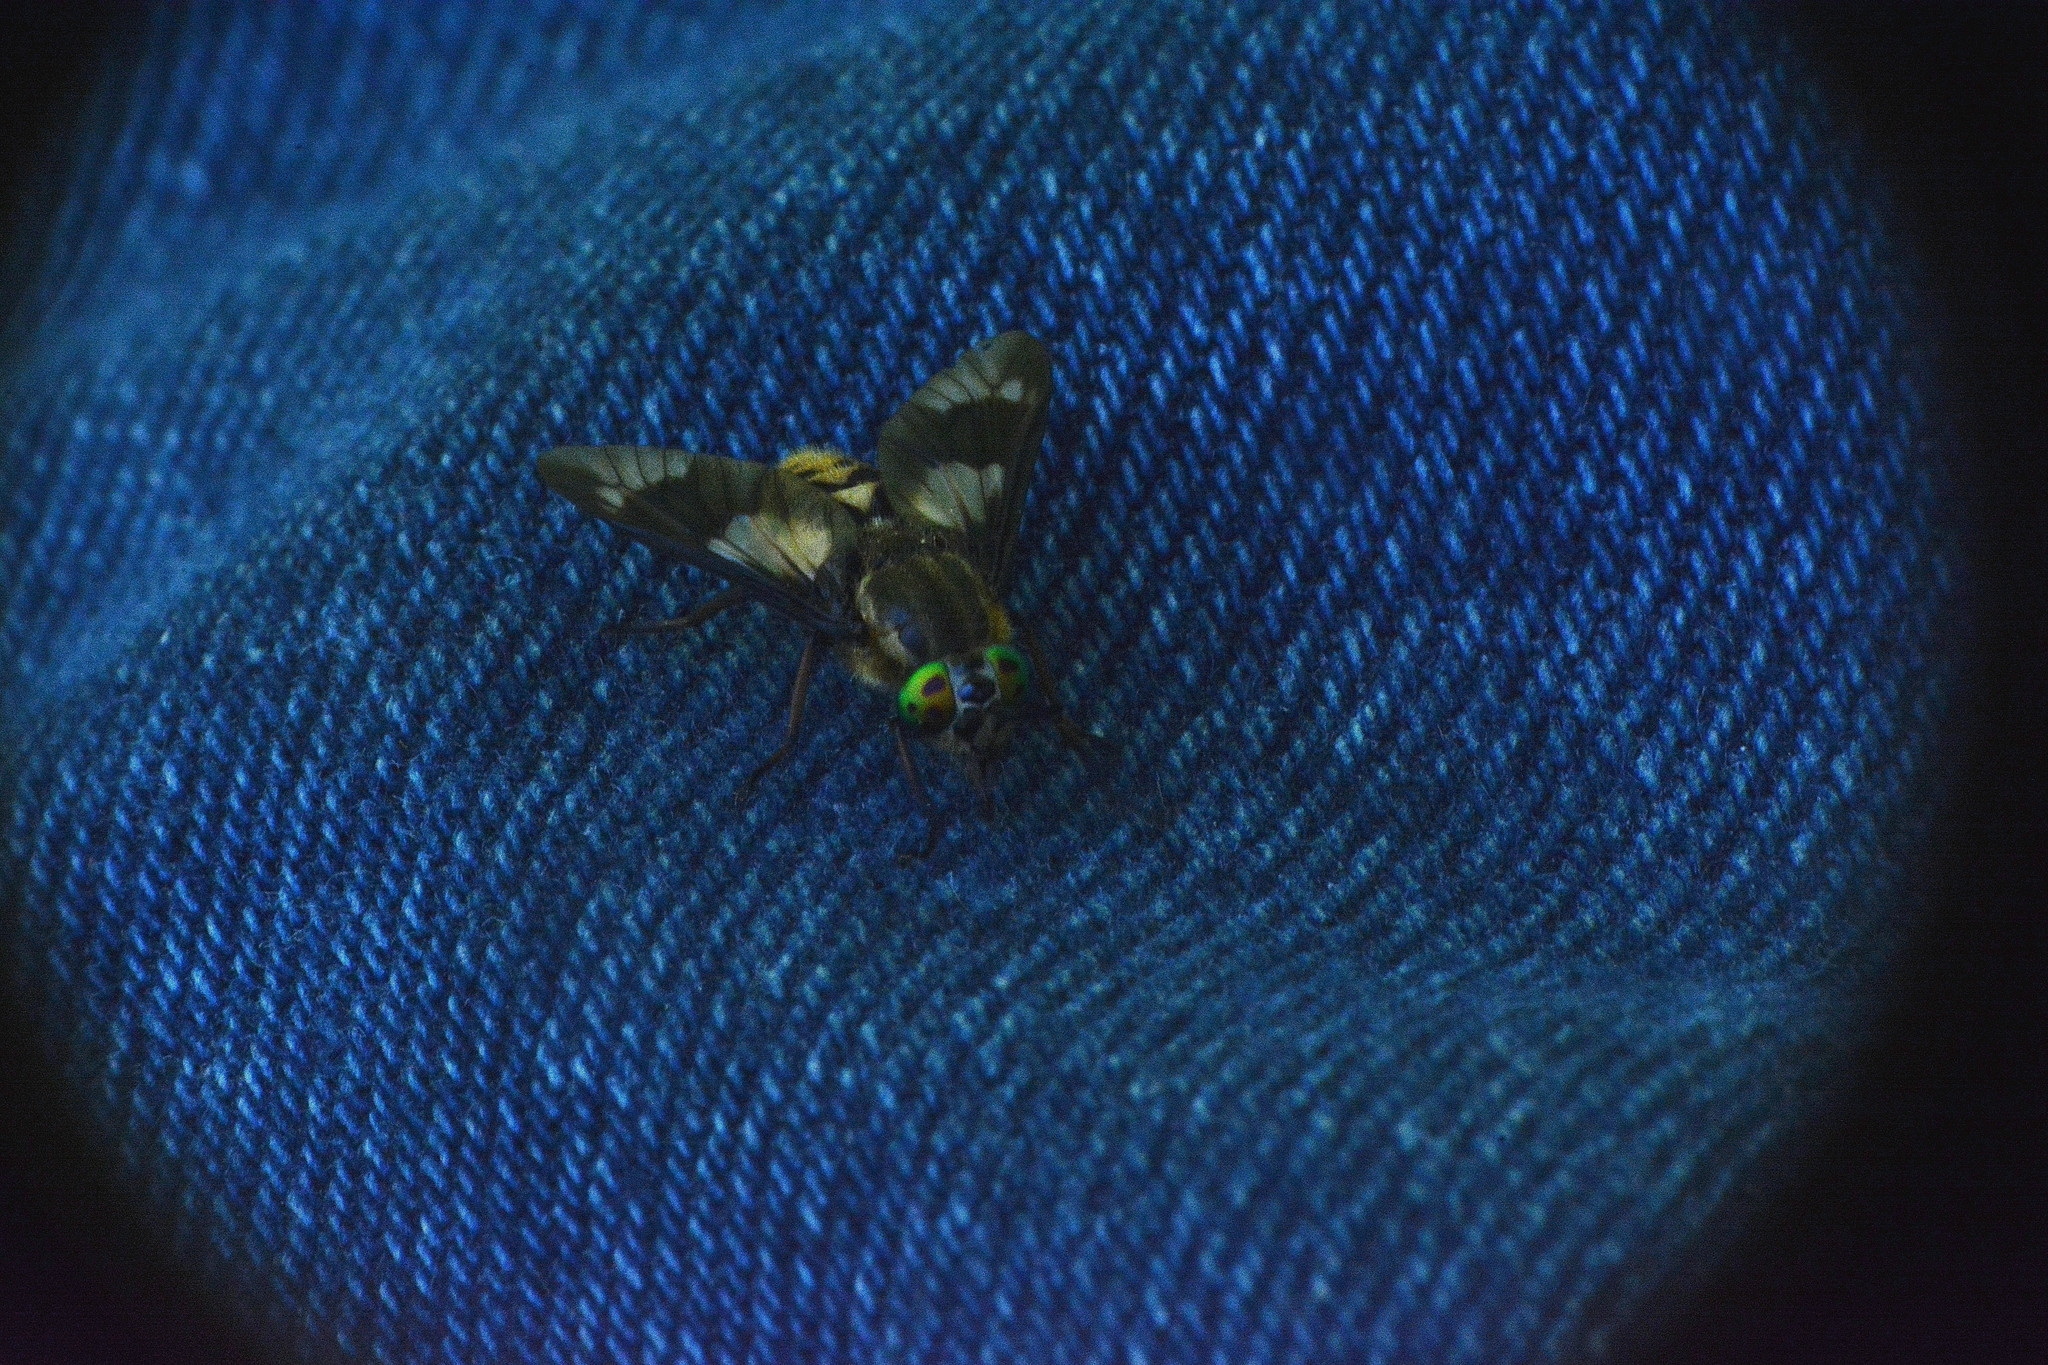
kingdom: Animalia
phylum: Arthropoda
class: Insecta
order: Diptera
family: Tabanidae
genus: Chrysops
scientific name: Chrysops relictus
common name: Twin-lobed deerfly
